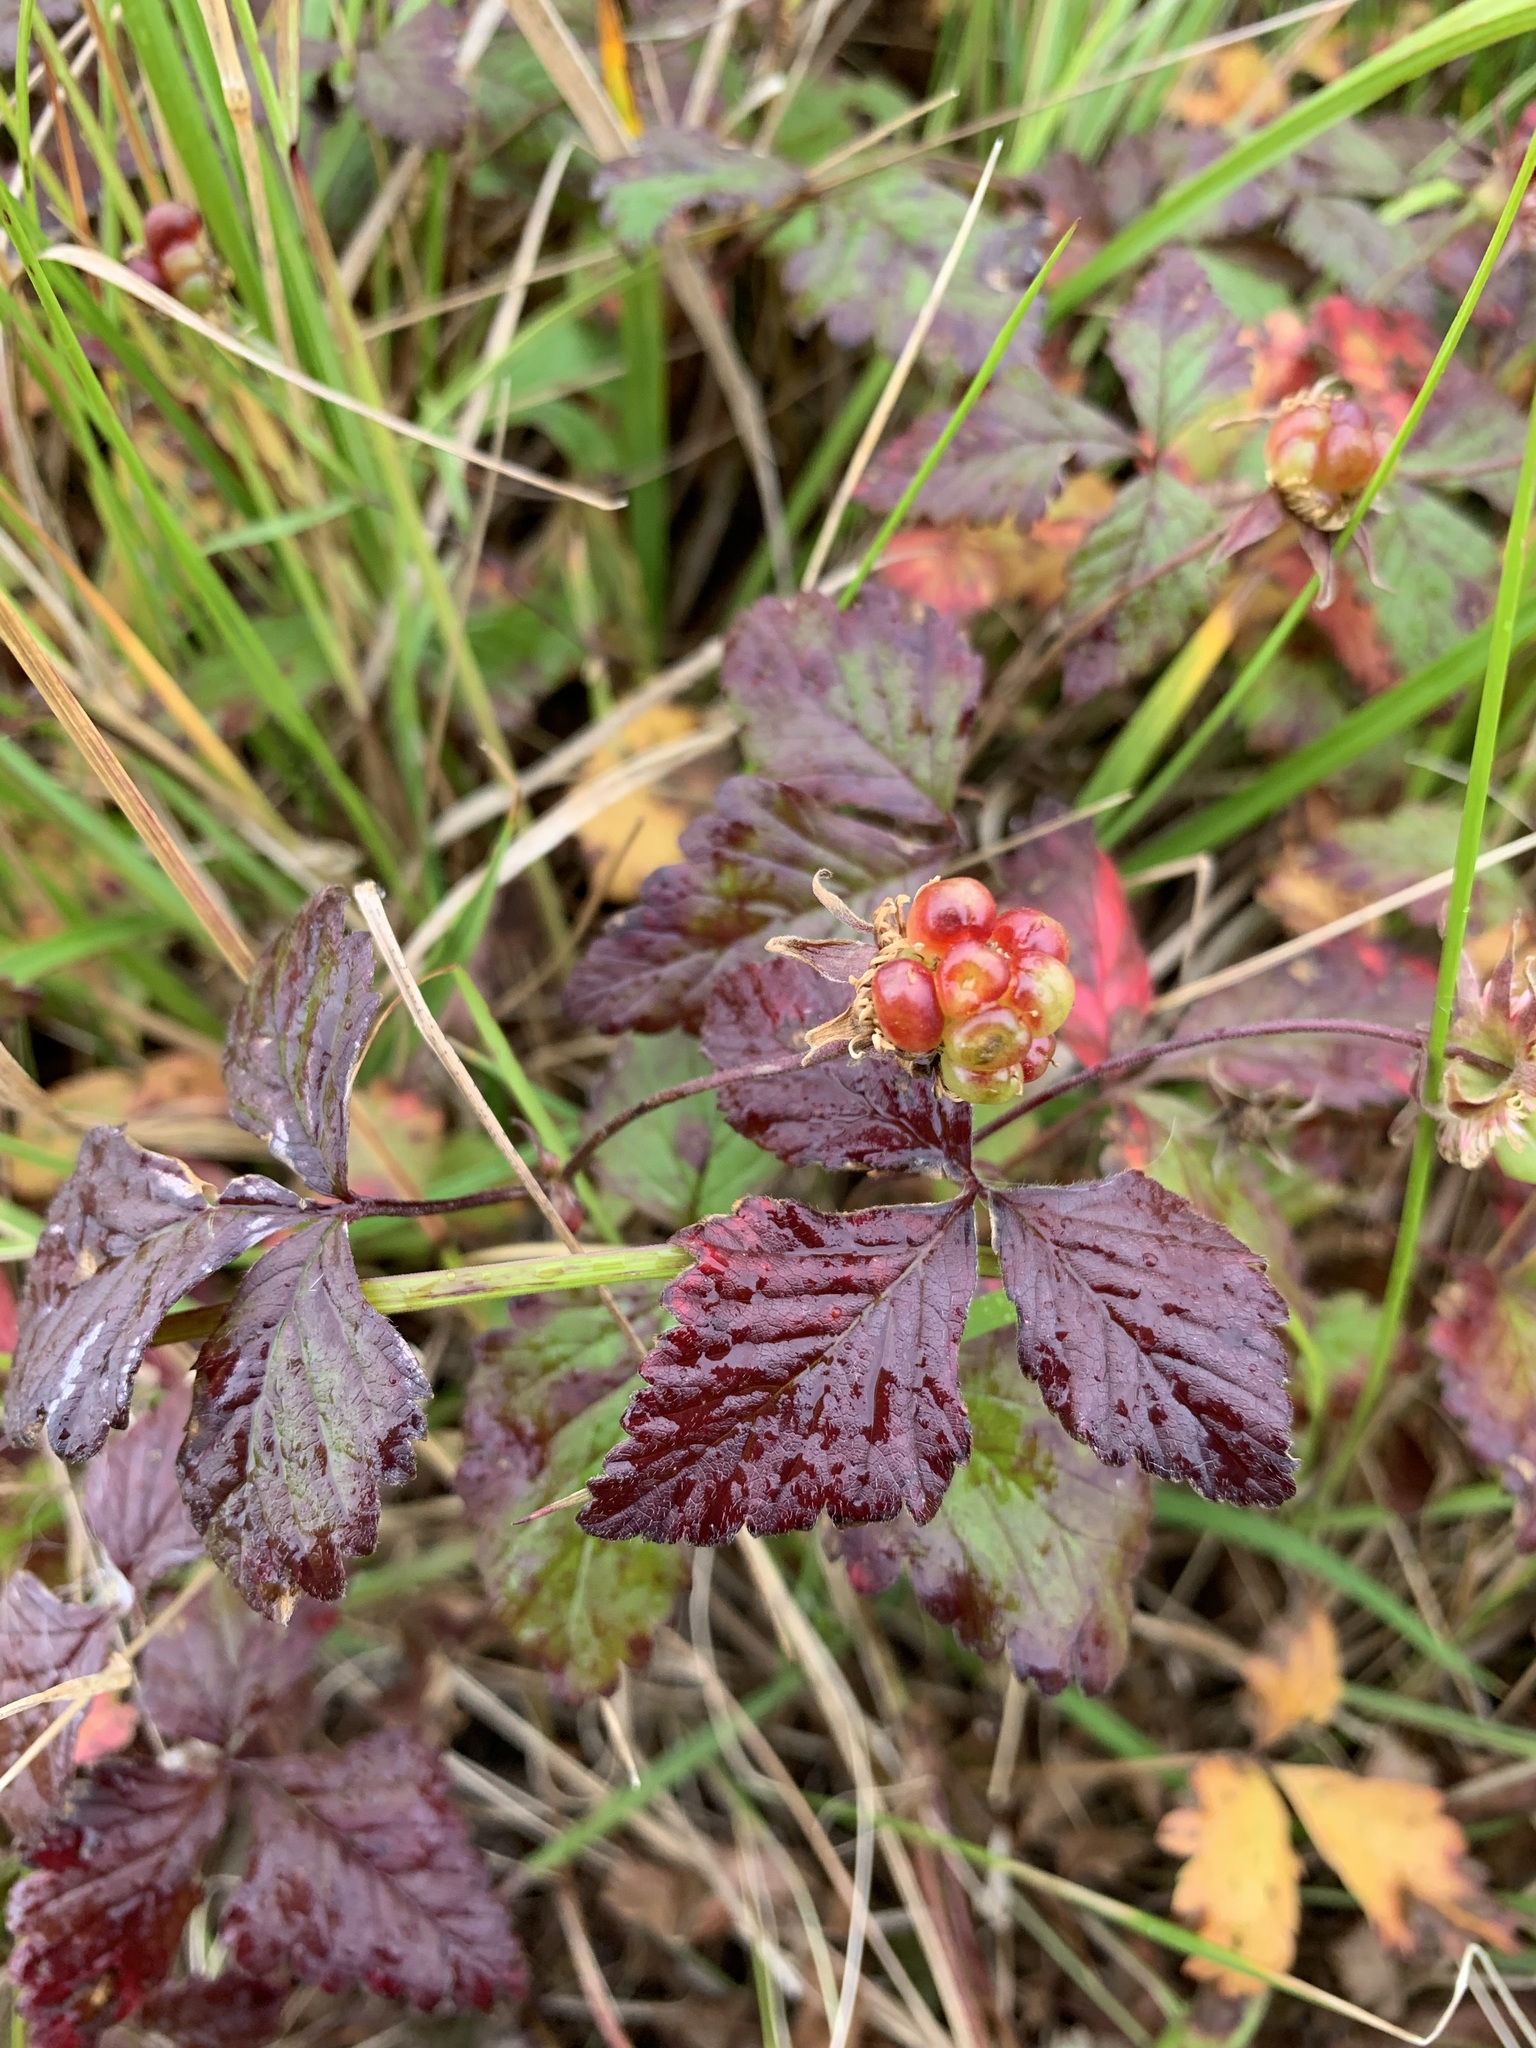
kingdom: Plantae
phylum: Tracheophyta
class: Magnoliopsida
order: Rosales
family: Rosaceae
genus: Rubus
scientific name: Rubus arcticus
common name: Arctic bramble
